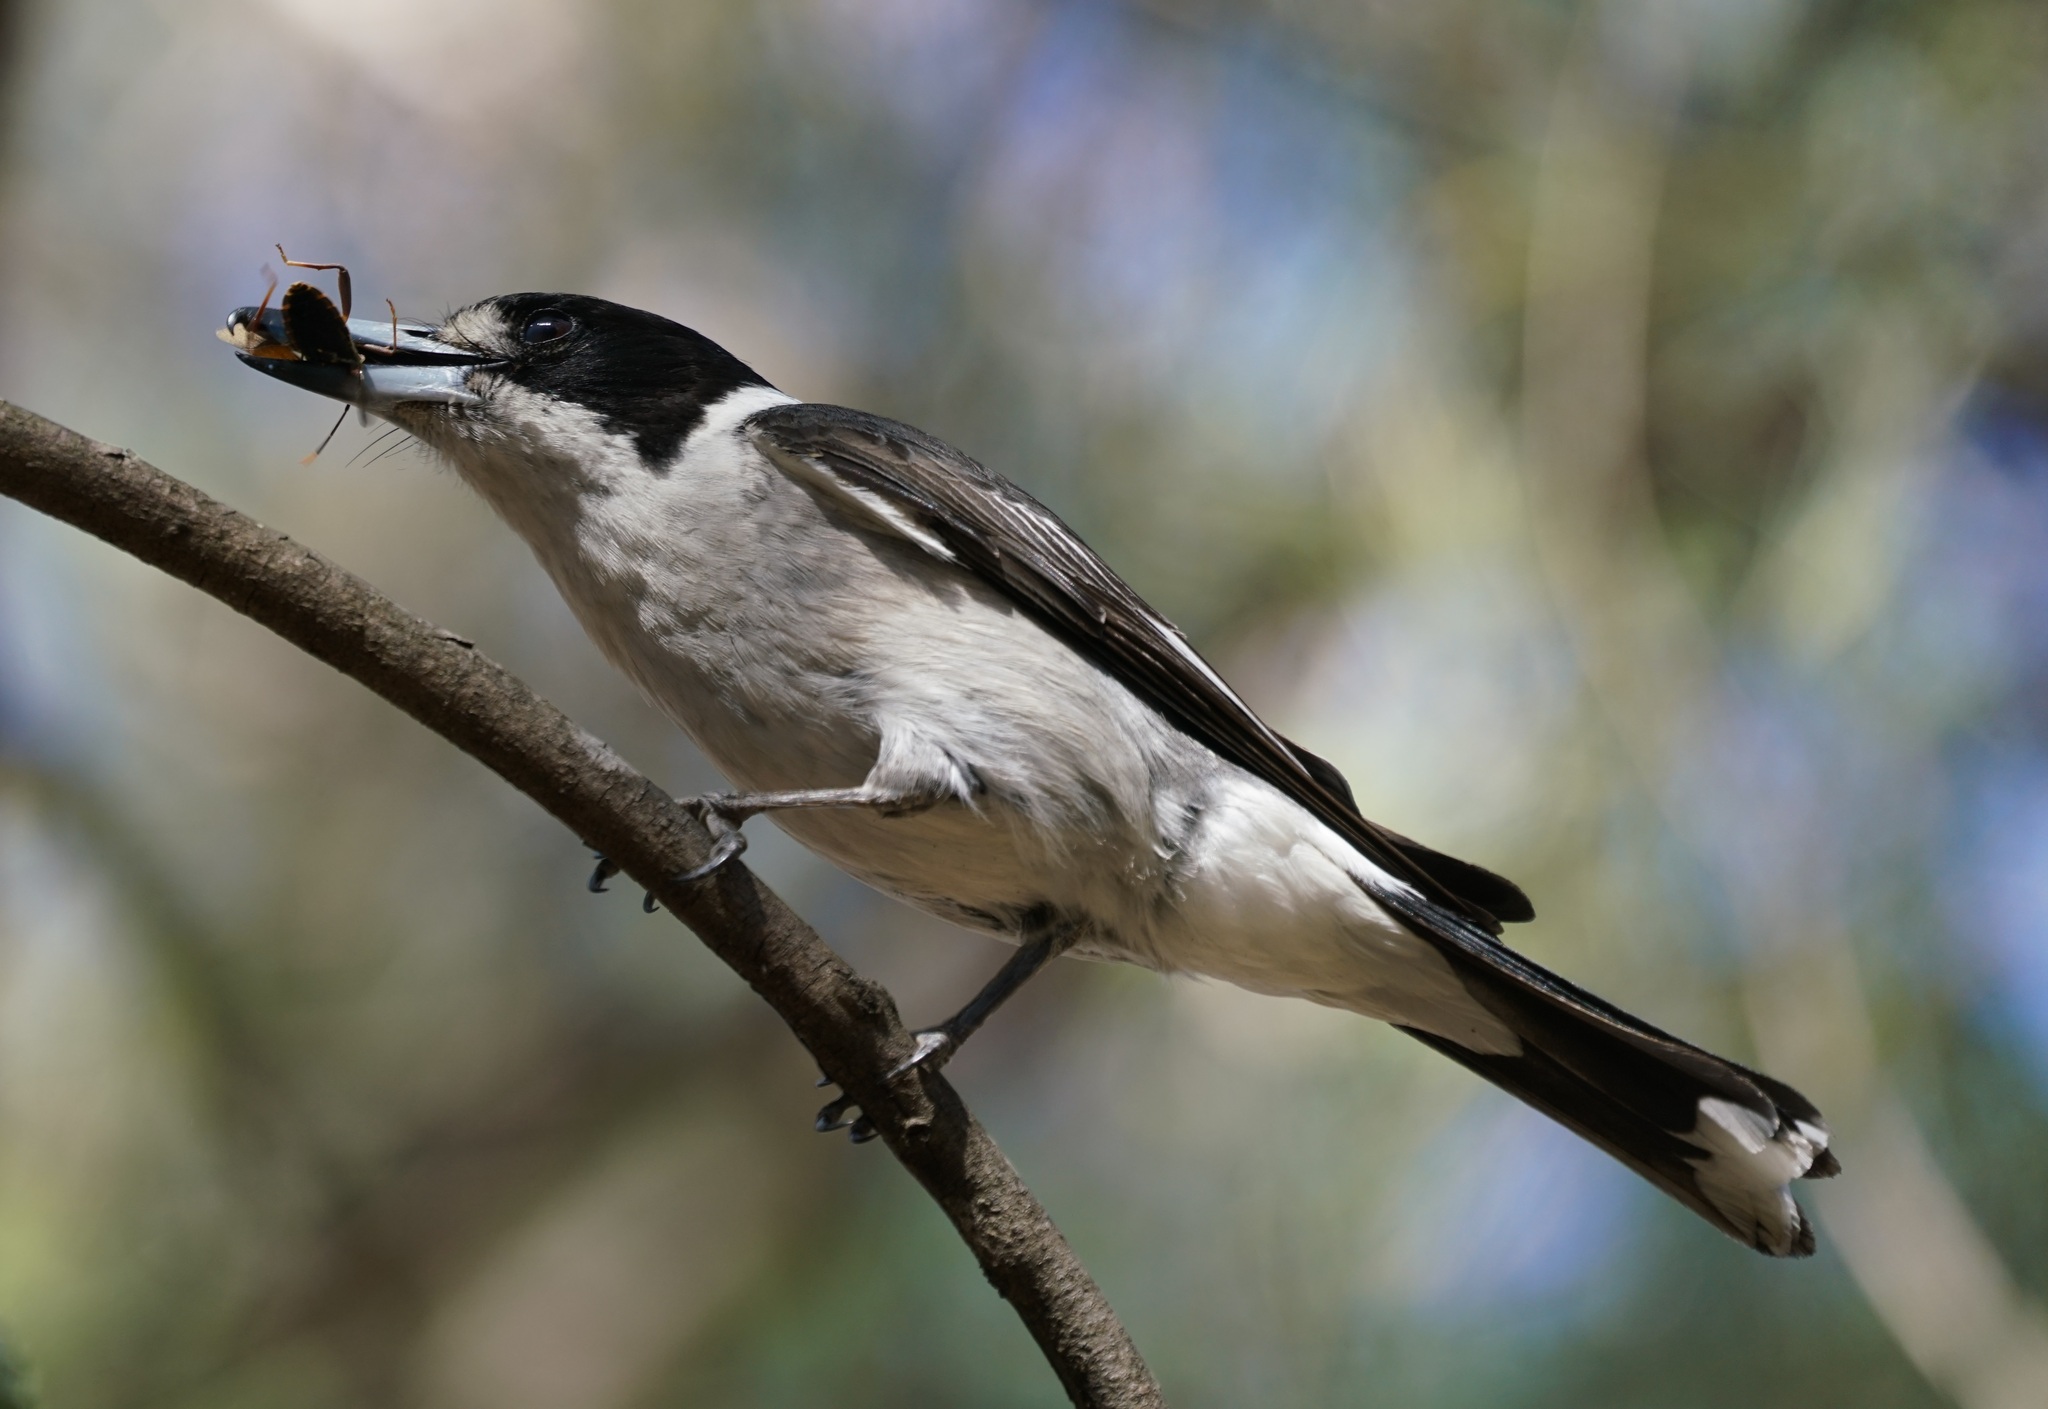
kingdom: Animalia
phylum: Chordata
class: Aves
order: Passeriformes
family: Cracticidae
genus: Cracticus
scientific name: Cracticus torquatus
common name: Grey butcherbird
